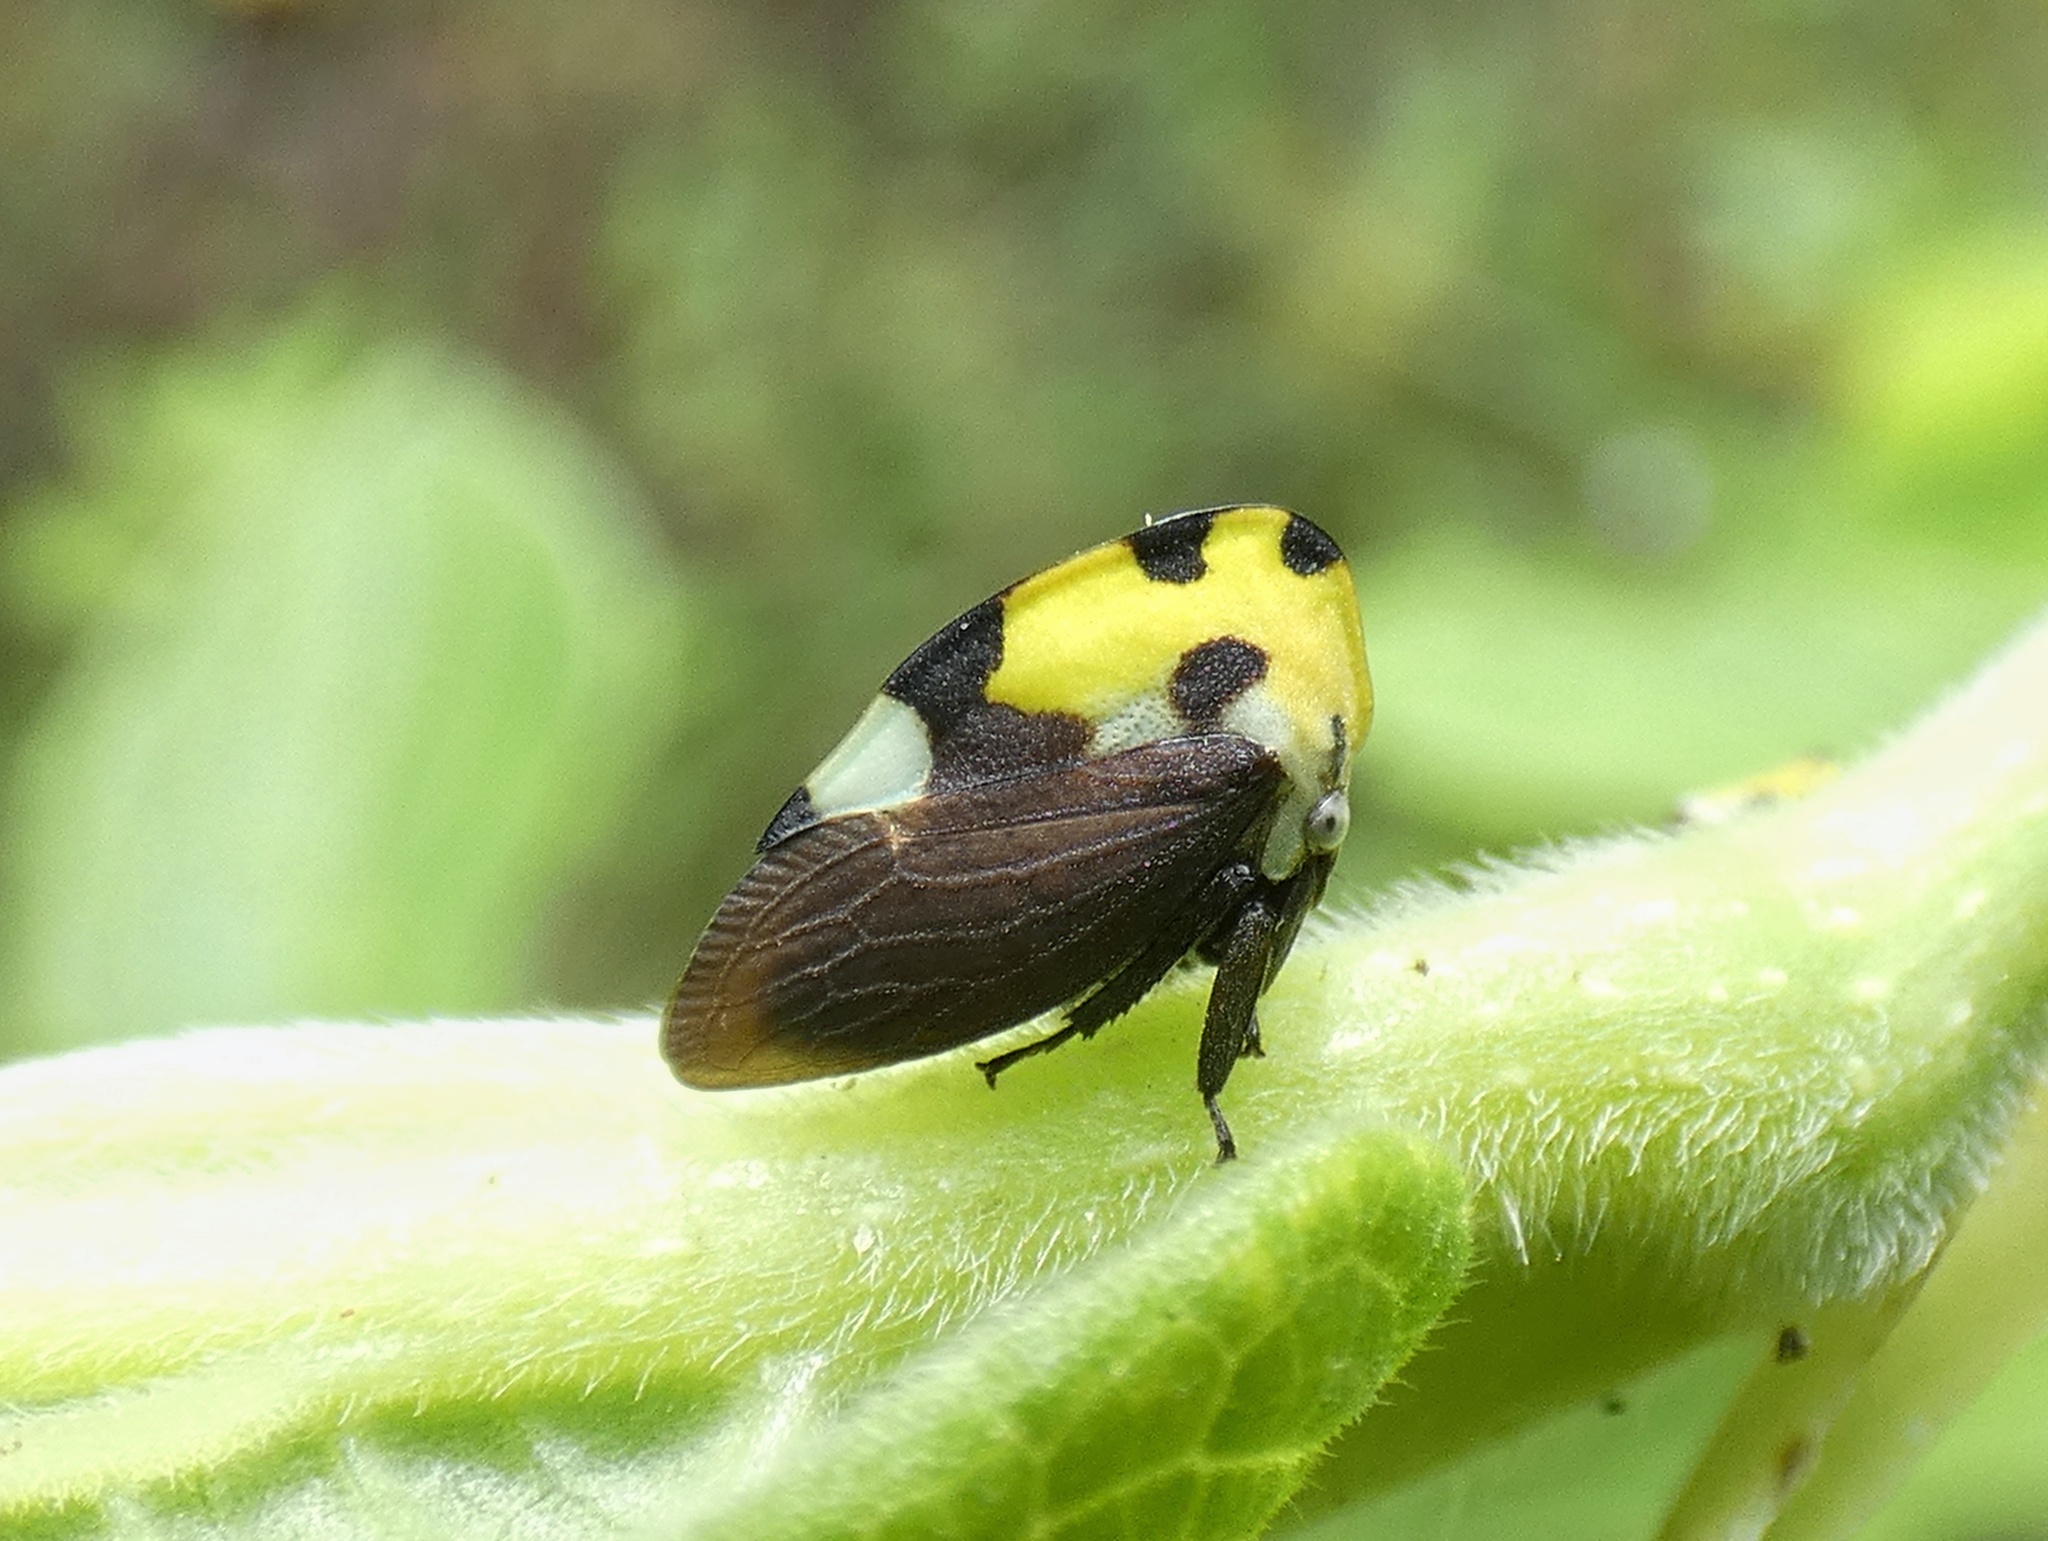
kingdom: Animalia
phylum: Arthropoda
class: Insecta
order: Hemiptera
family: Membracidae
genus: Membracis
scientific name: Membracis mexicana
